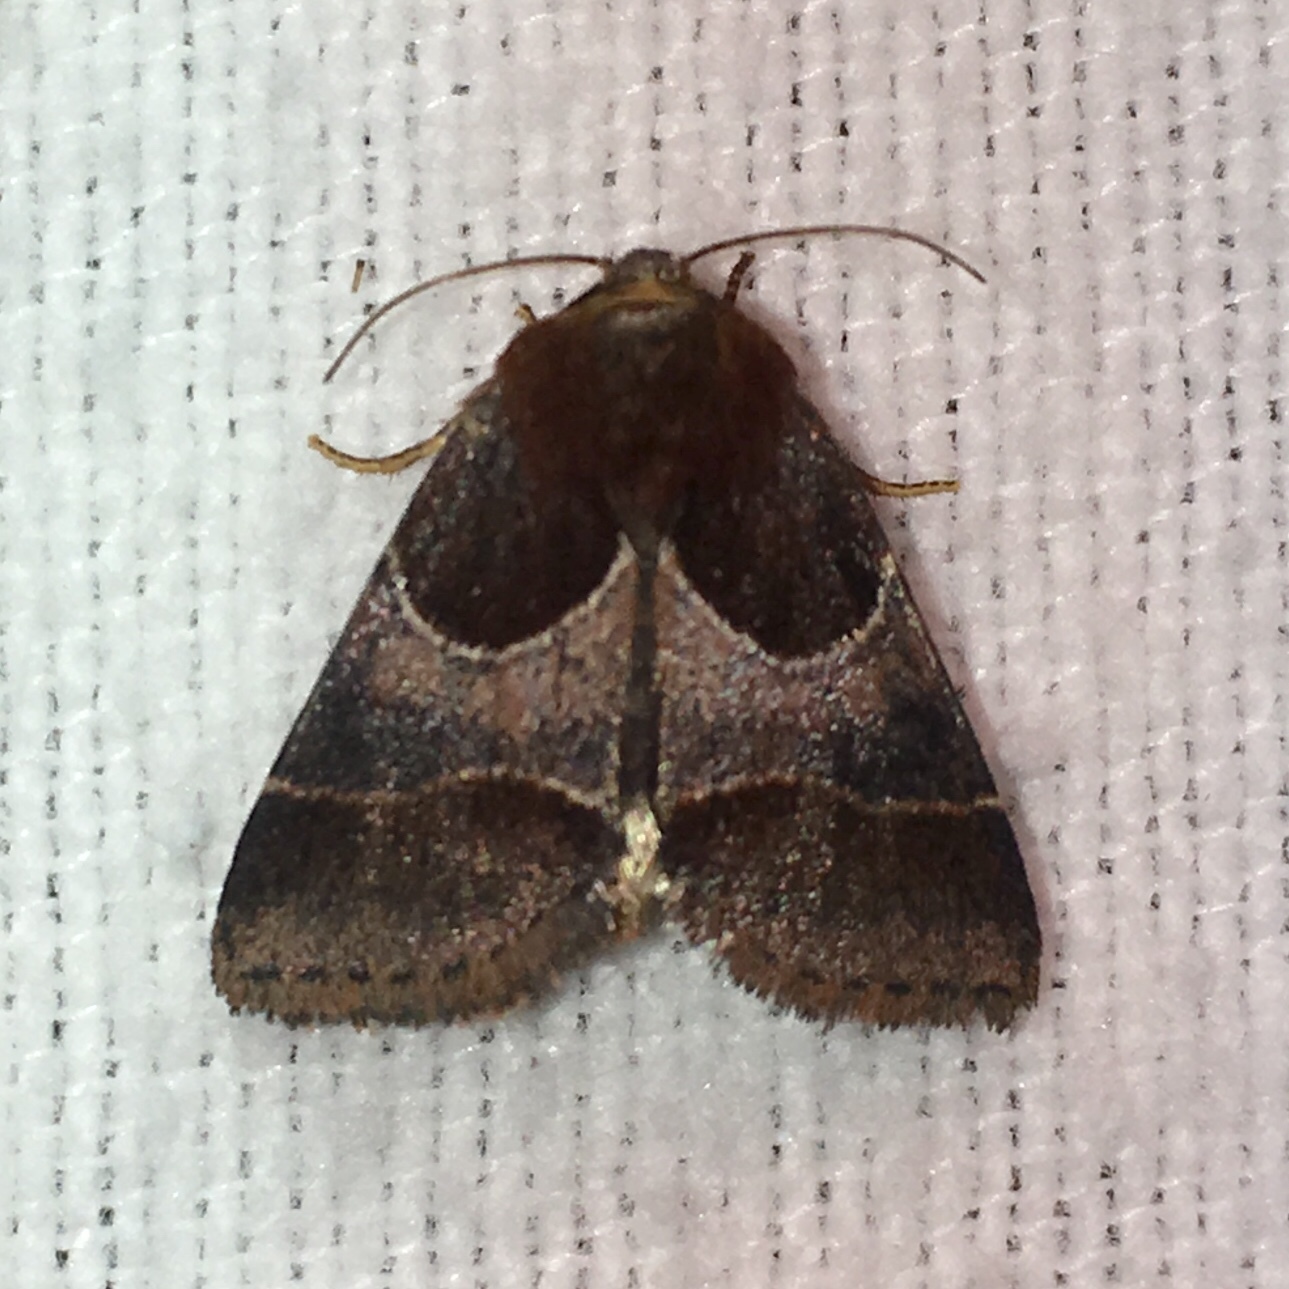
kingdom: Animalia
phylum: Arthropoda
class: Insecta
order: Lepidoptera
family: Noctuidae
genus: Schinia
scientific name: Schinia arcigera
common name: Arcigera flower moth
